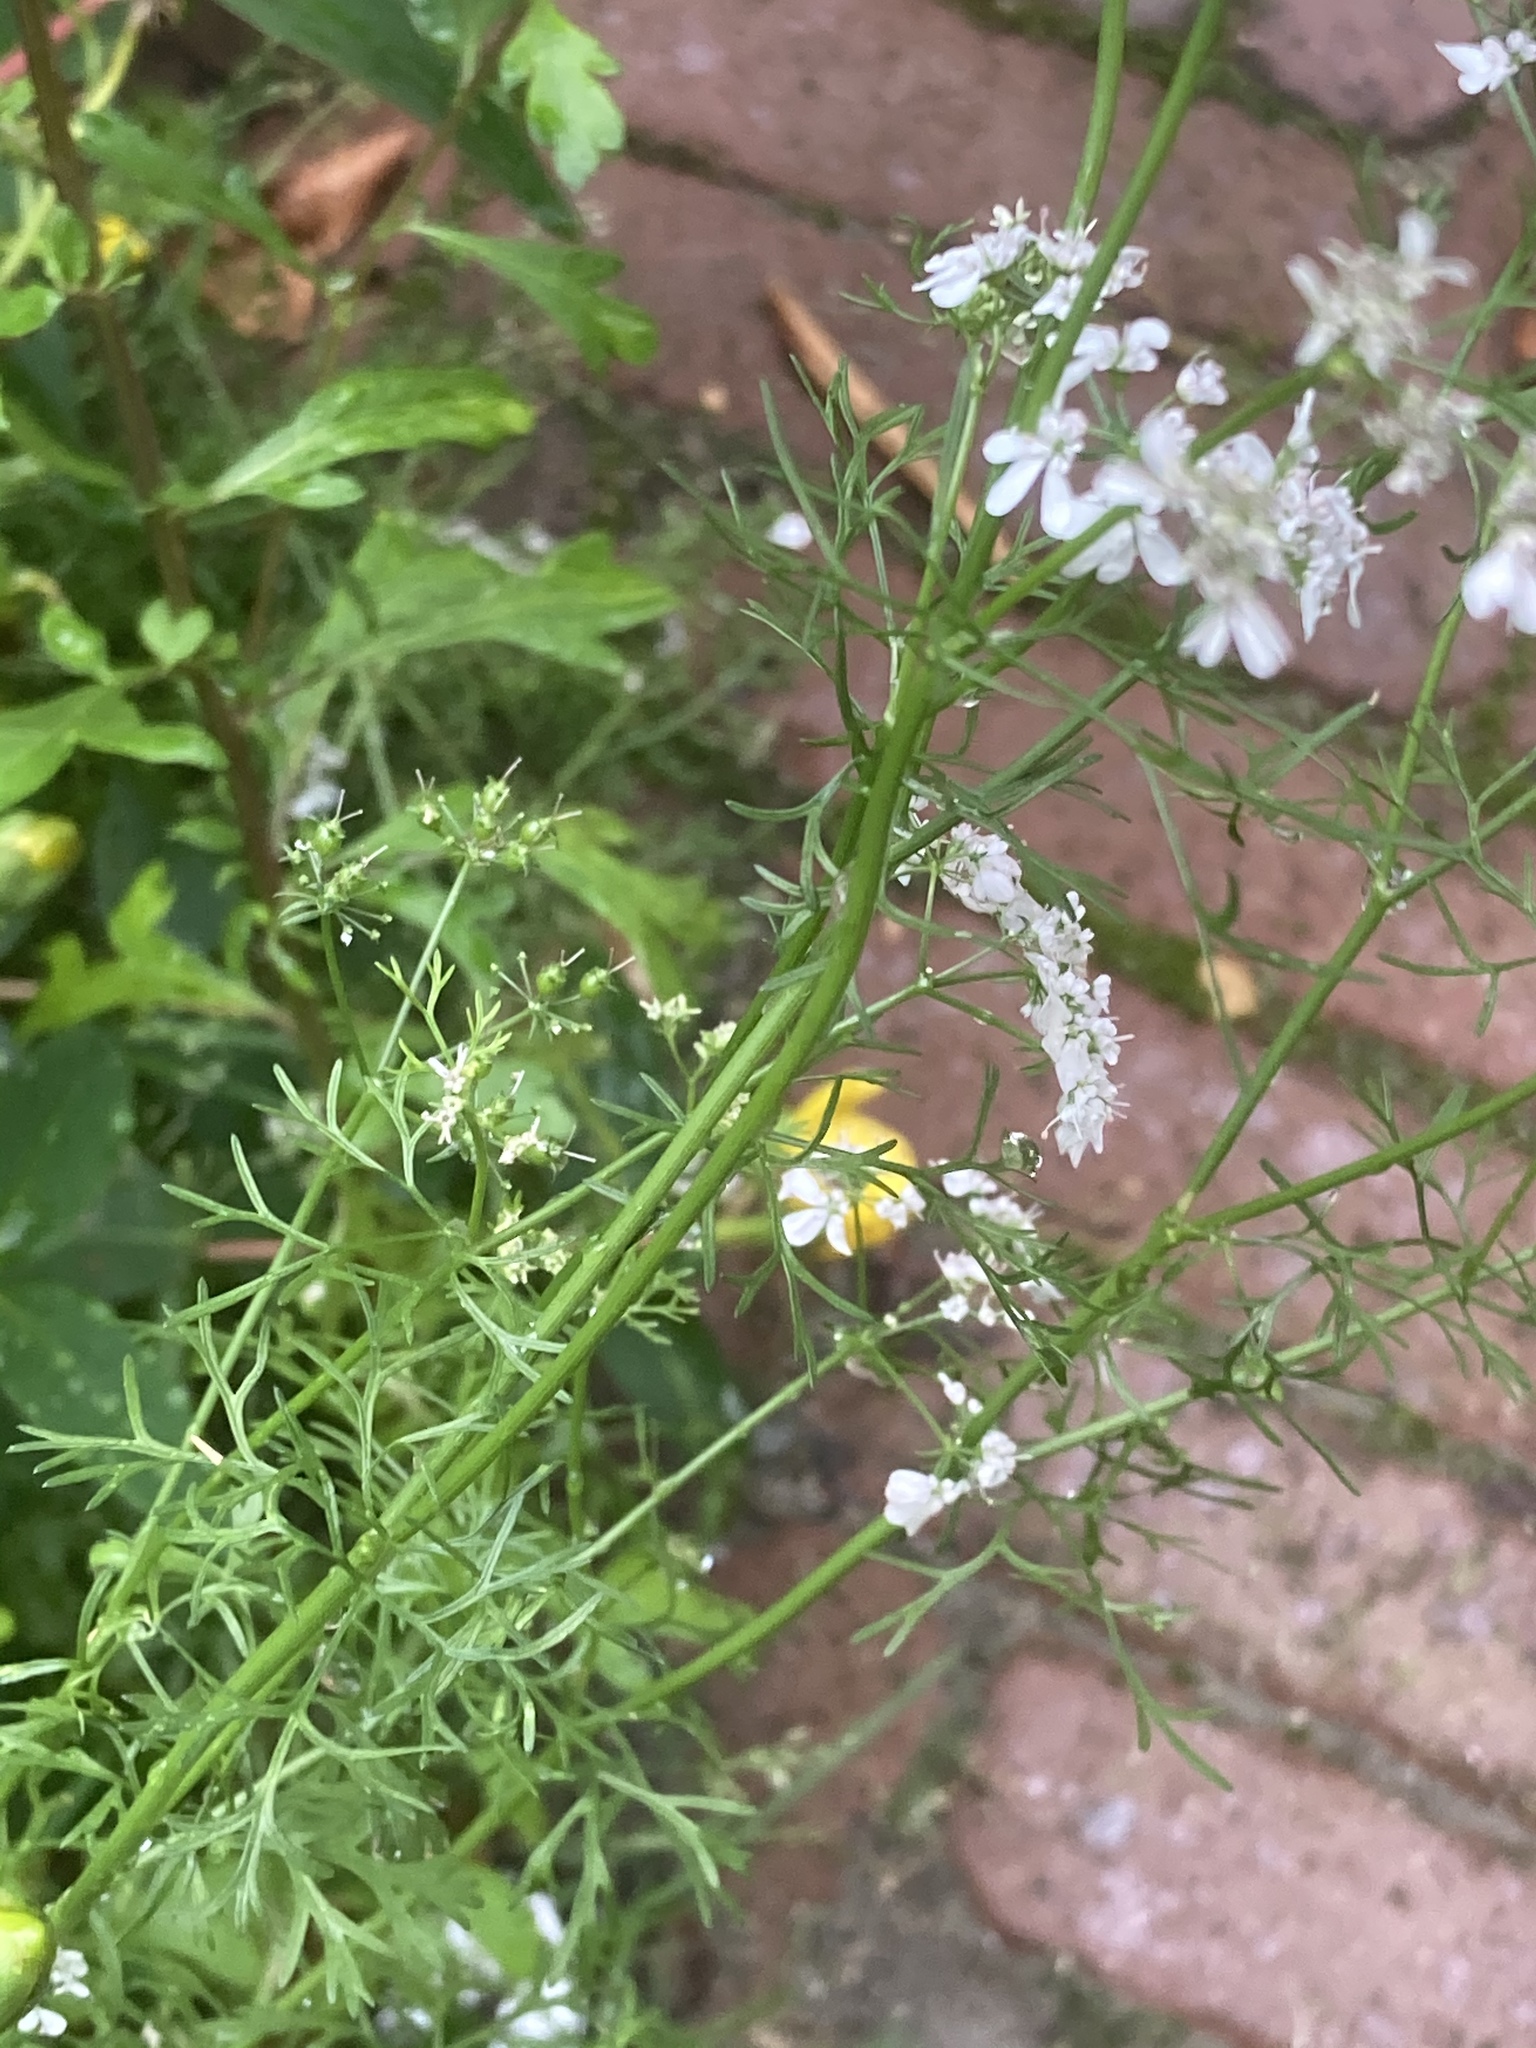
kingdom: Plantae
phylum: Tracheophyta
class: Magnoliopsida
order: Apiales
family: Apiaceae
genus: Coriandrum
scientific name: Coriandrum sativum
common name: Coriander
